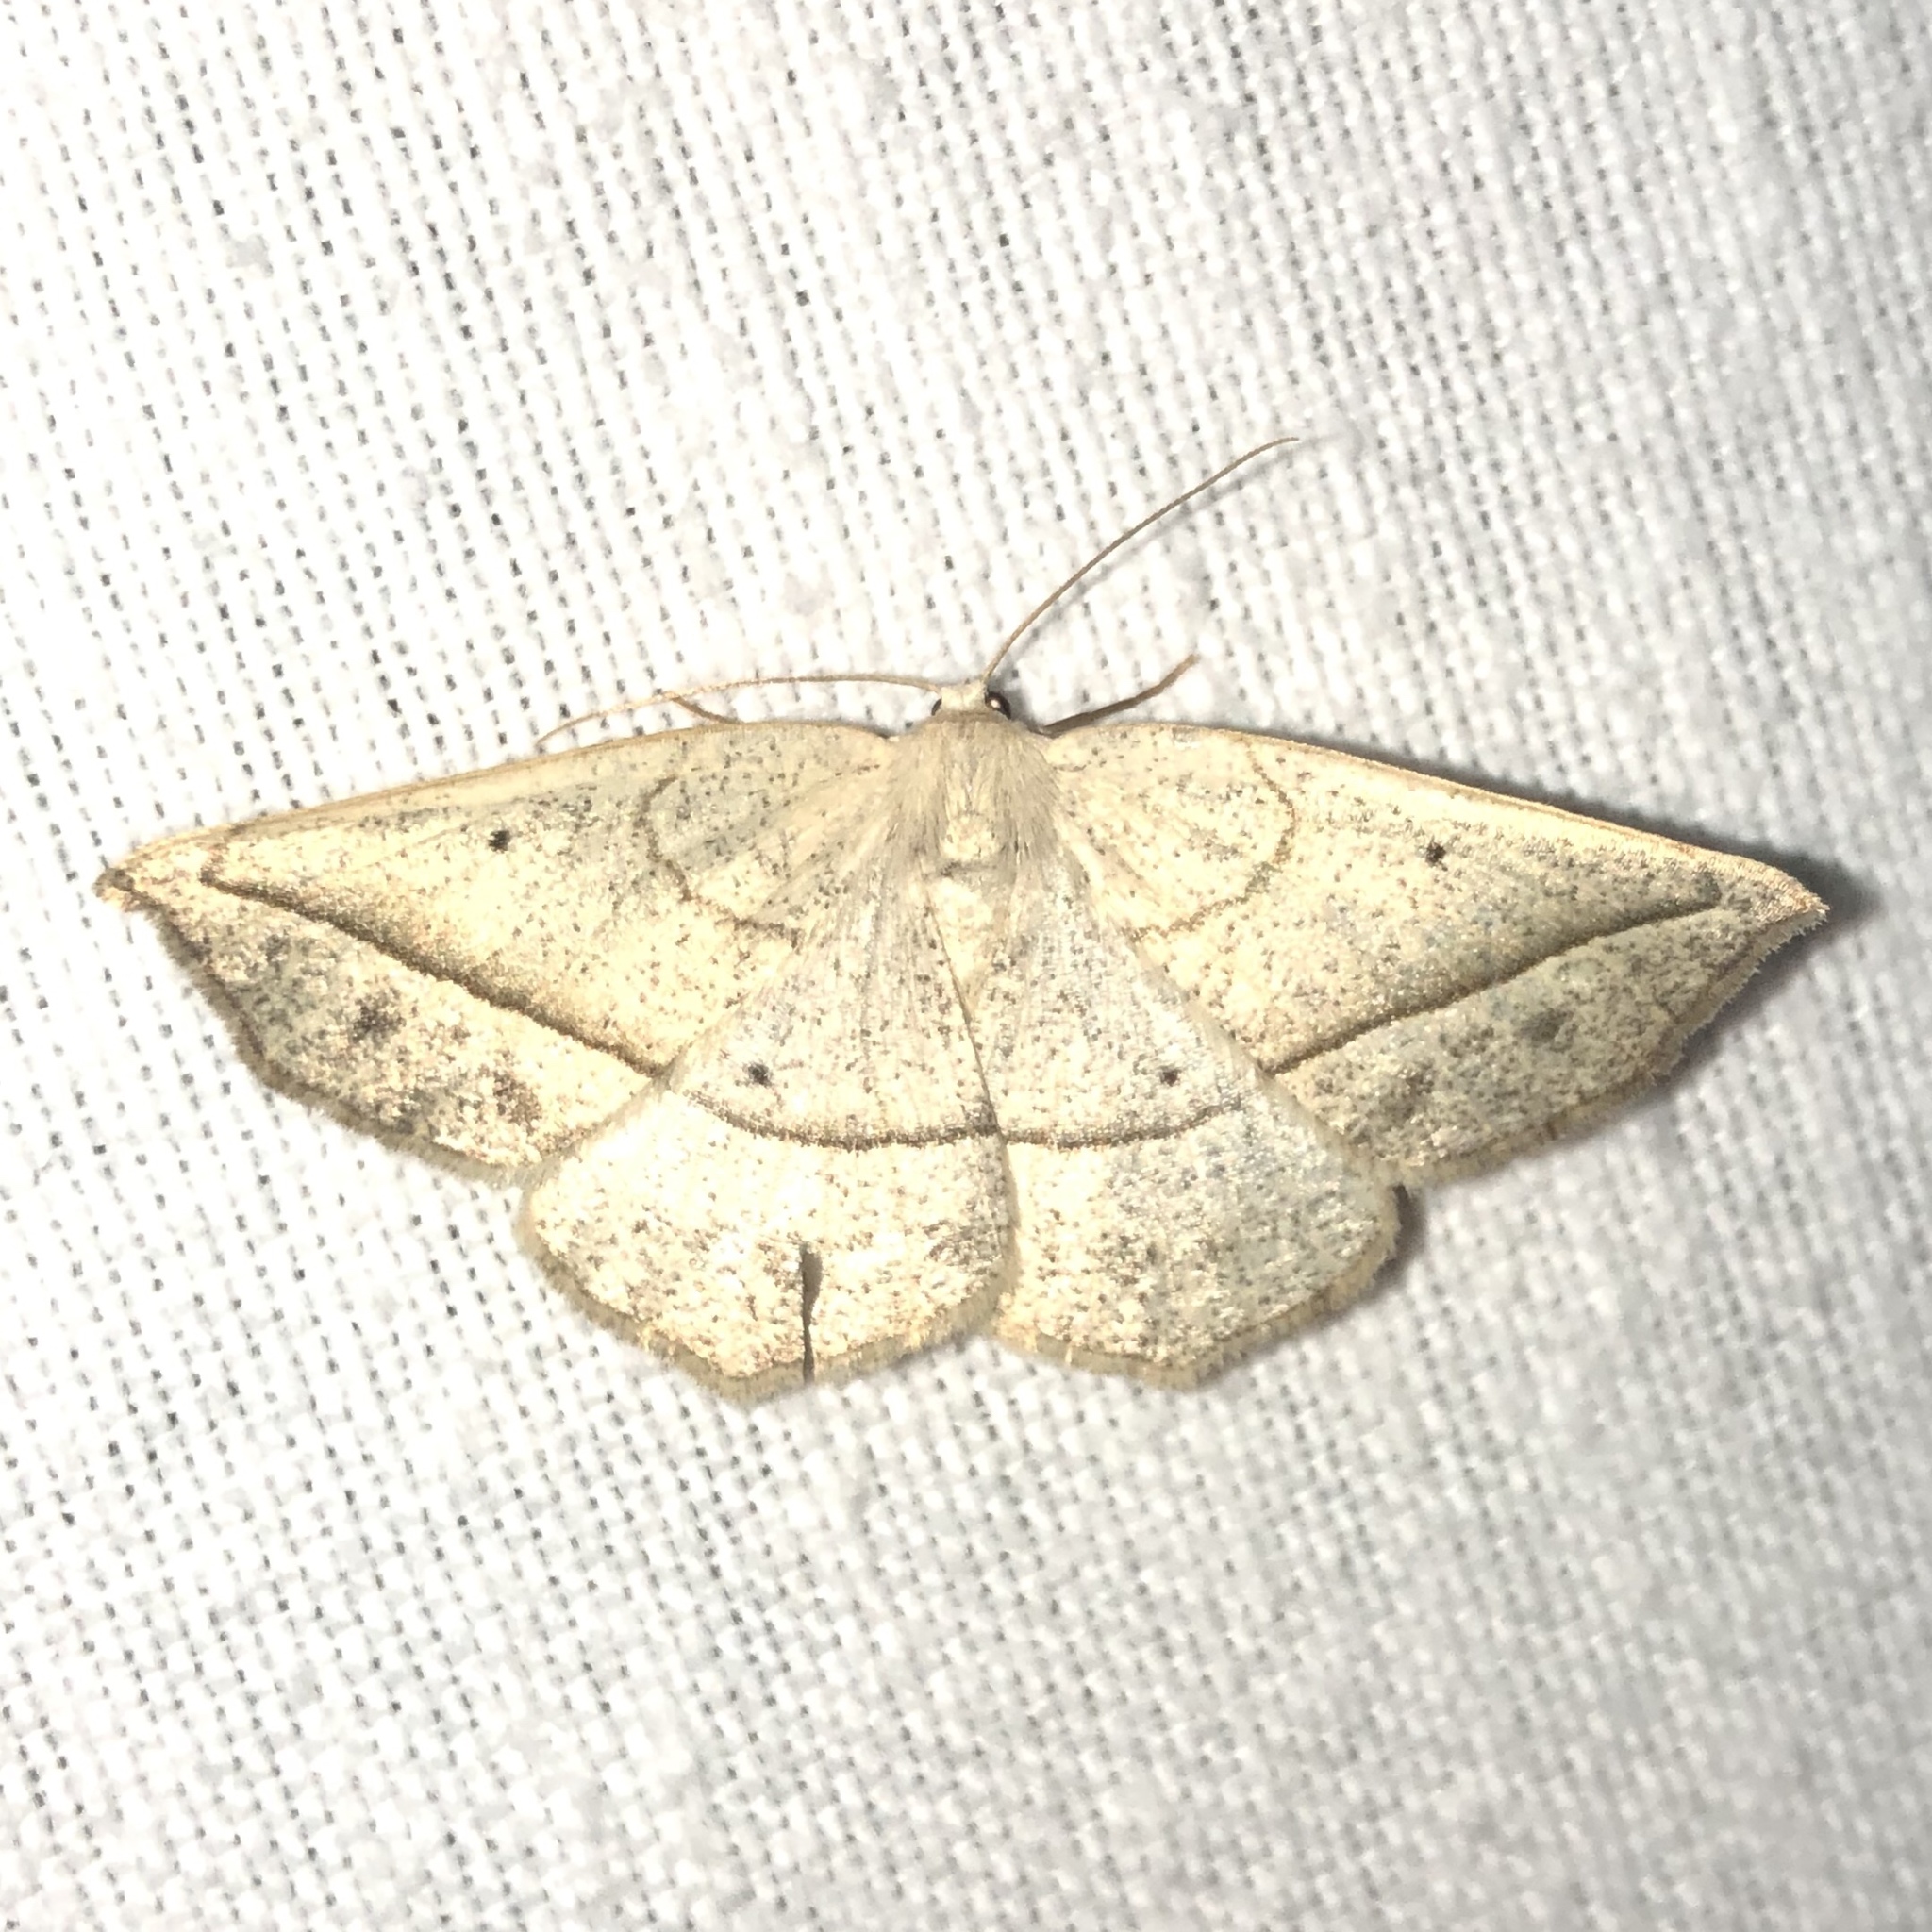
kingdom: Animalia
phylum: Arthropoda
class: Insecta
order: Lepidoptera
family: Geometridae
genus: Eusarca
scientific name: Eusarca confusaria
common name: Confused eusarca
